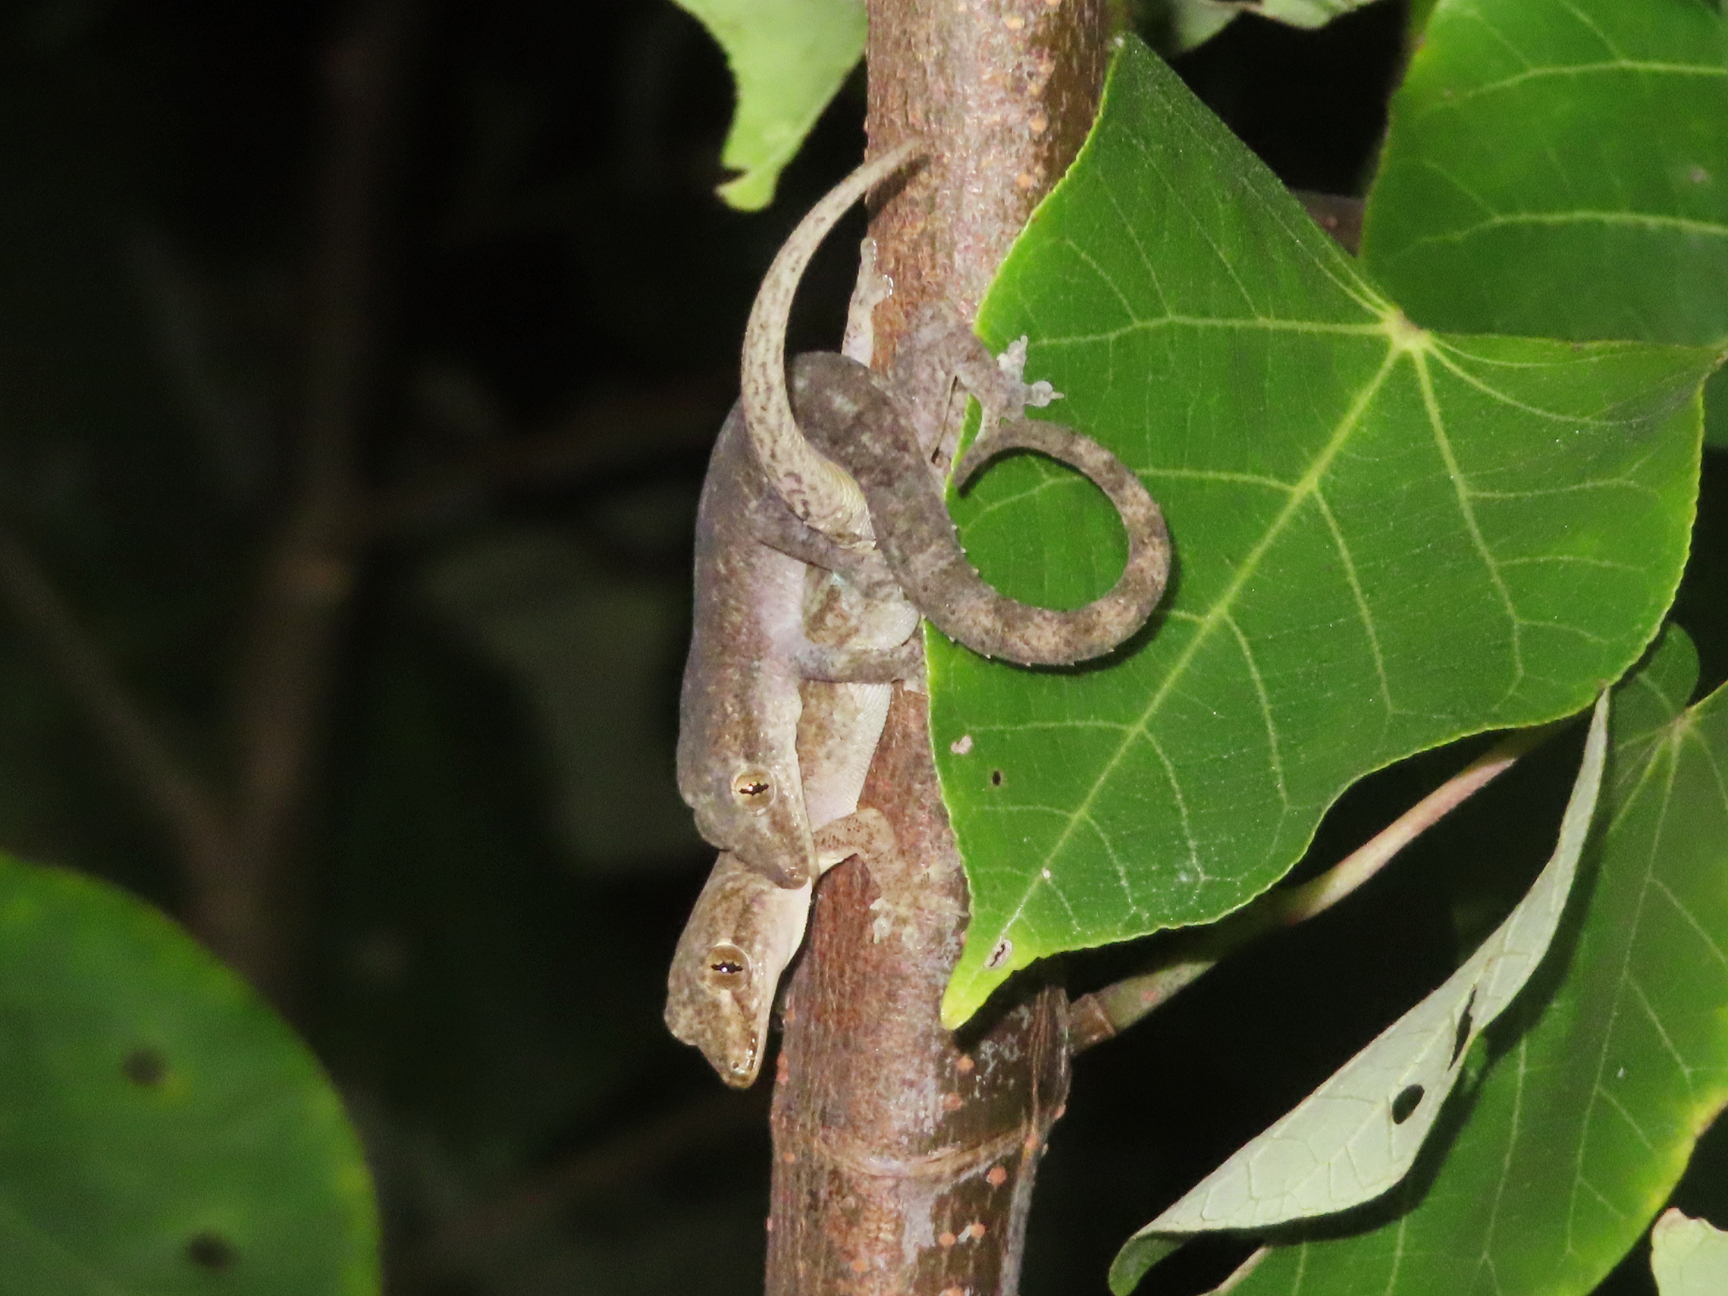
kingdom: Animalia
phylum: Chordata
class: Squamata
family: Gekkonidae
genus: Hemidactylus
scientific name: Hemidactylus frenatus
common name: Common house gecko
